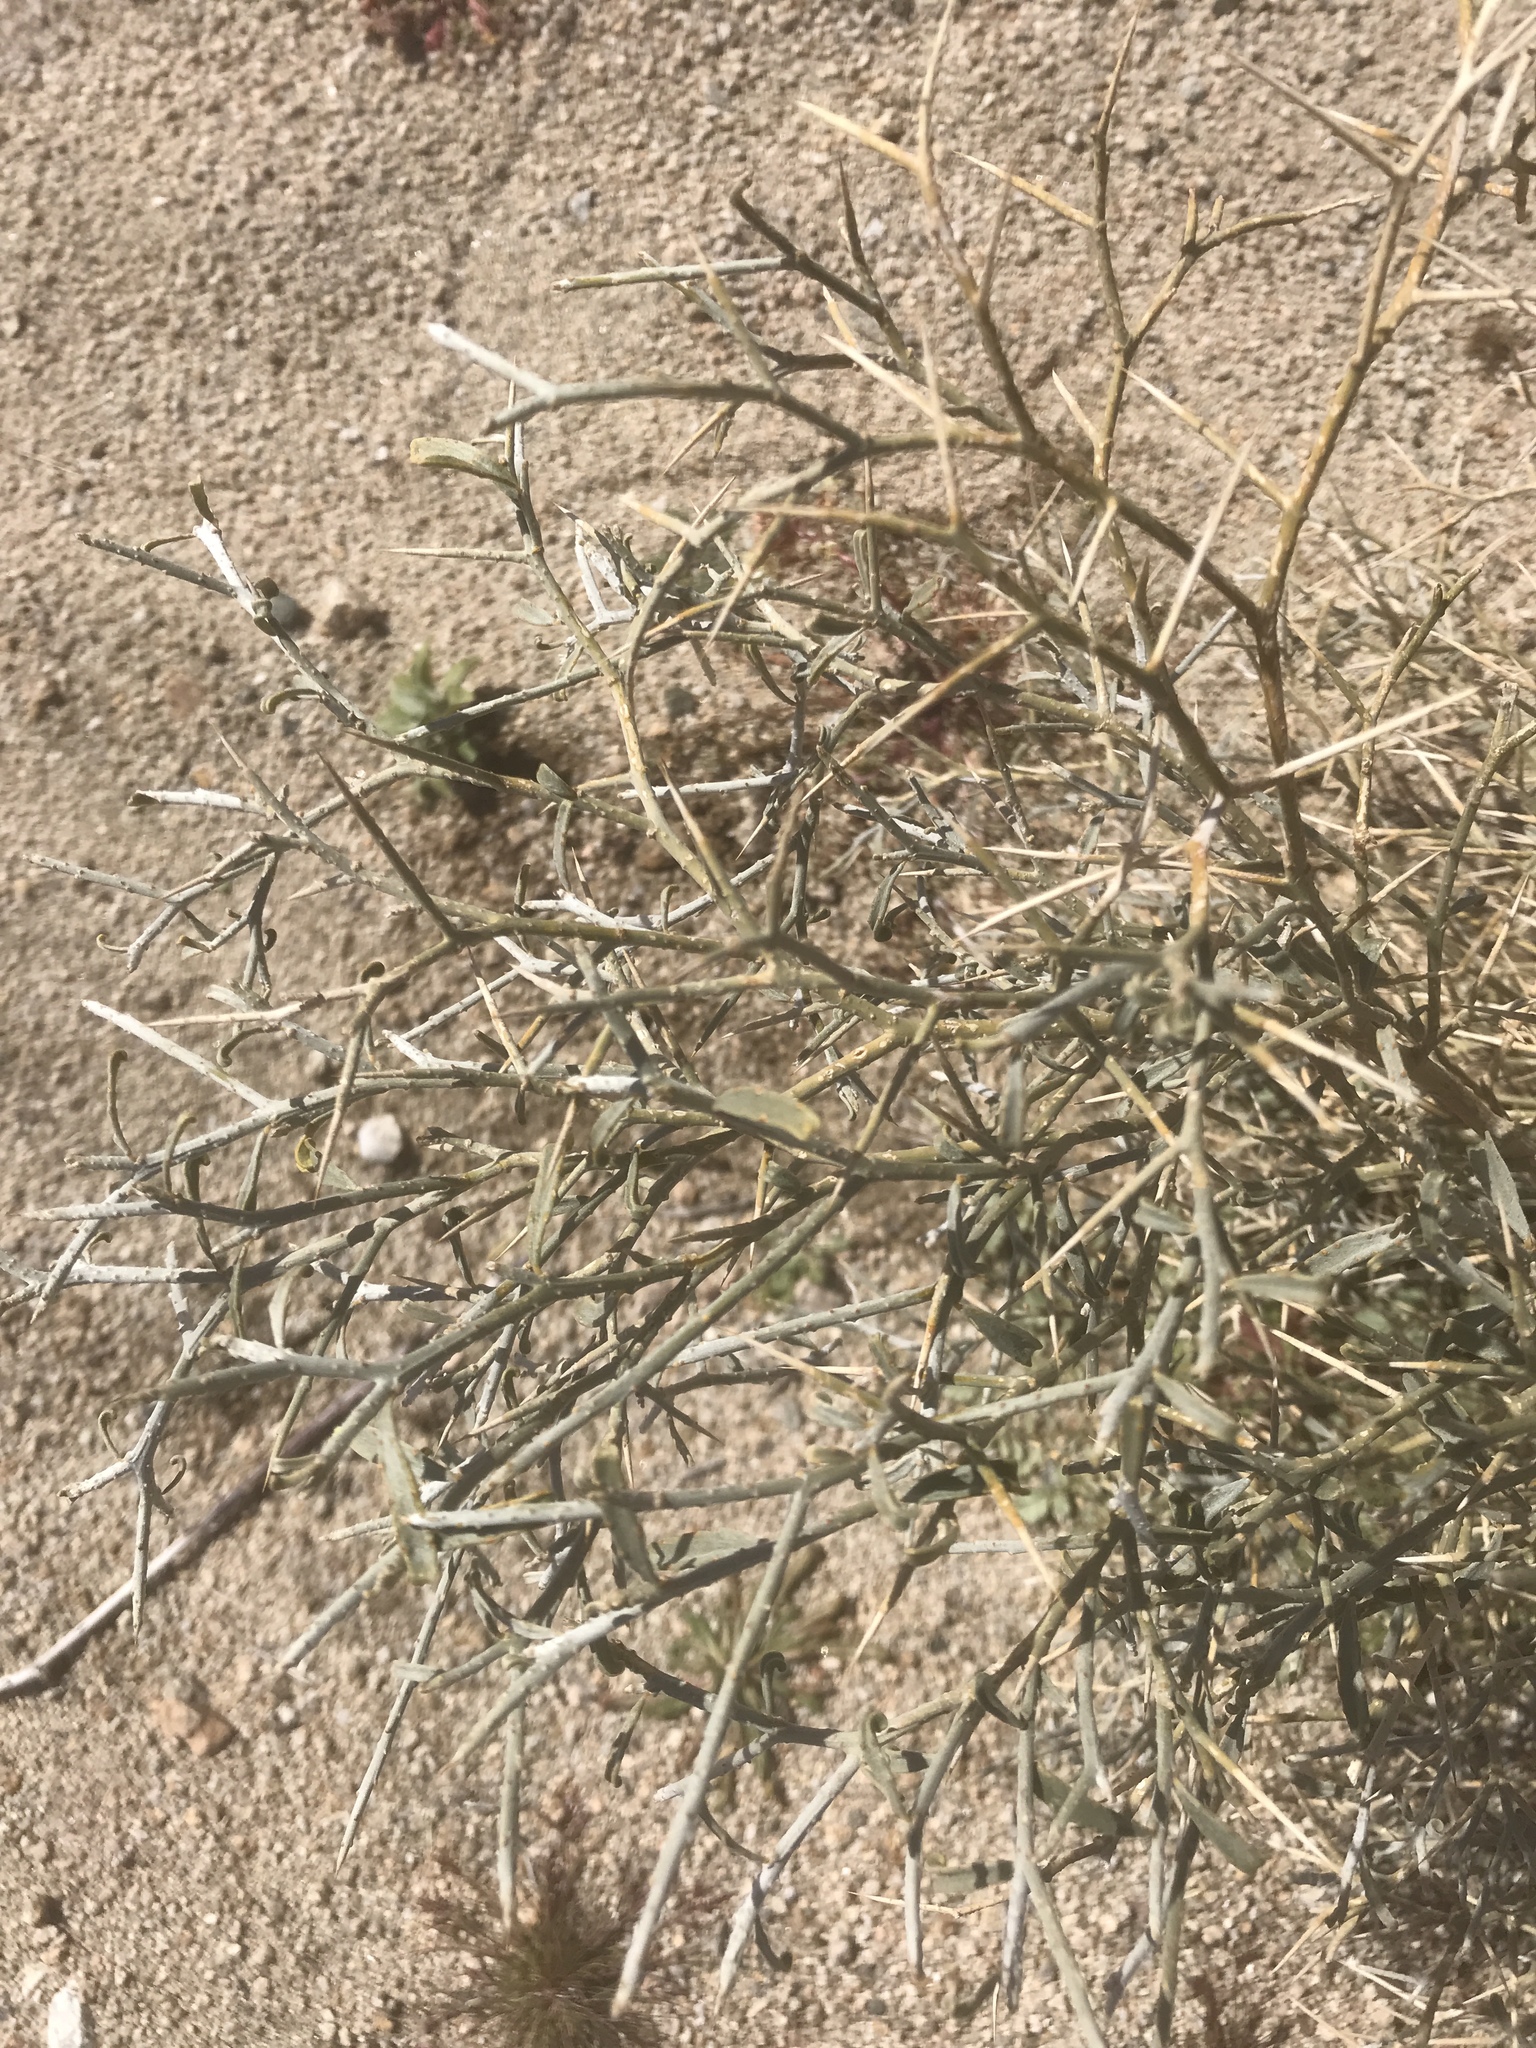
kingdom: Plantae
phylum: Tracheophyta
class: Magnoliopsida
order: Fabales
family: Fabaceae
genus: Psorothamnus
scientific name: Psorothamnus spinosus
